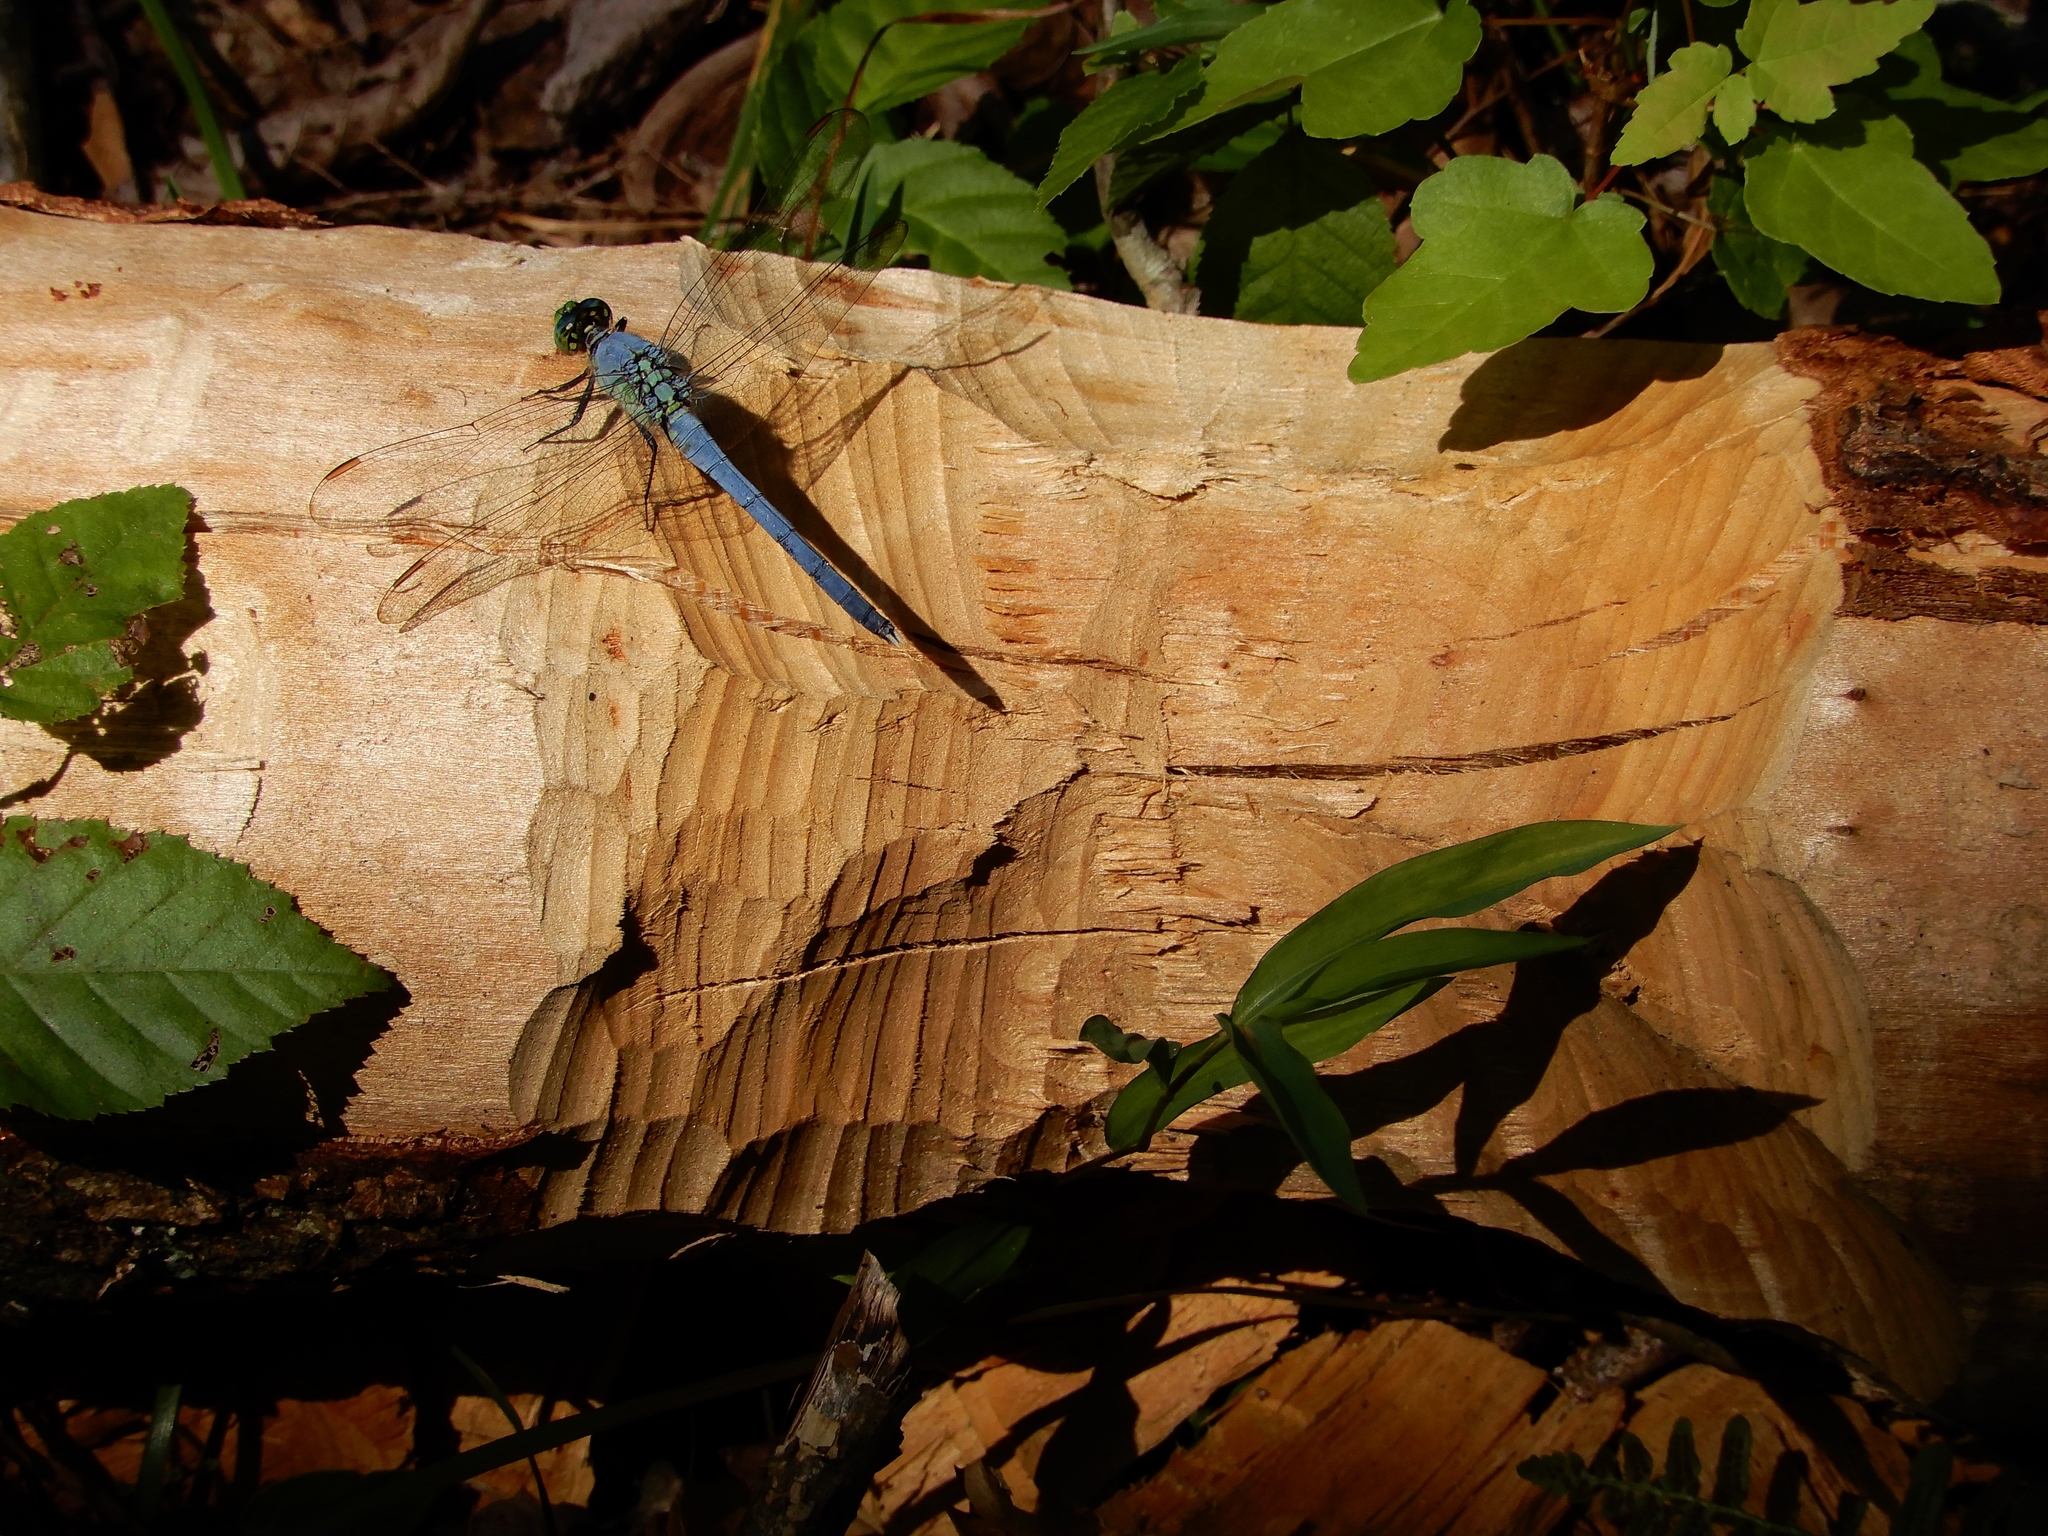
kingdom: Animalia
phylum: Arthropoda
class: Insecta
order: Odonata
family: Libellulidae
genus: Erythemis
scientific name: Erythemis simplicicollis
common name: Eastern pondhawk
